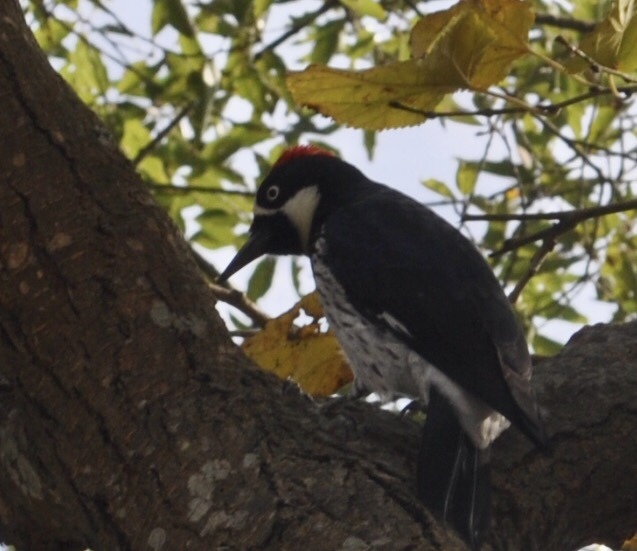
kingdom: Animalia
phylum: Chordata
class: Aves
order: Piciformes
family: Picidae
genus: Melanerpes
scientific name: Melanerpes formicivorus
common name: Acorn woodpecker
